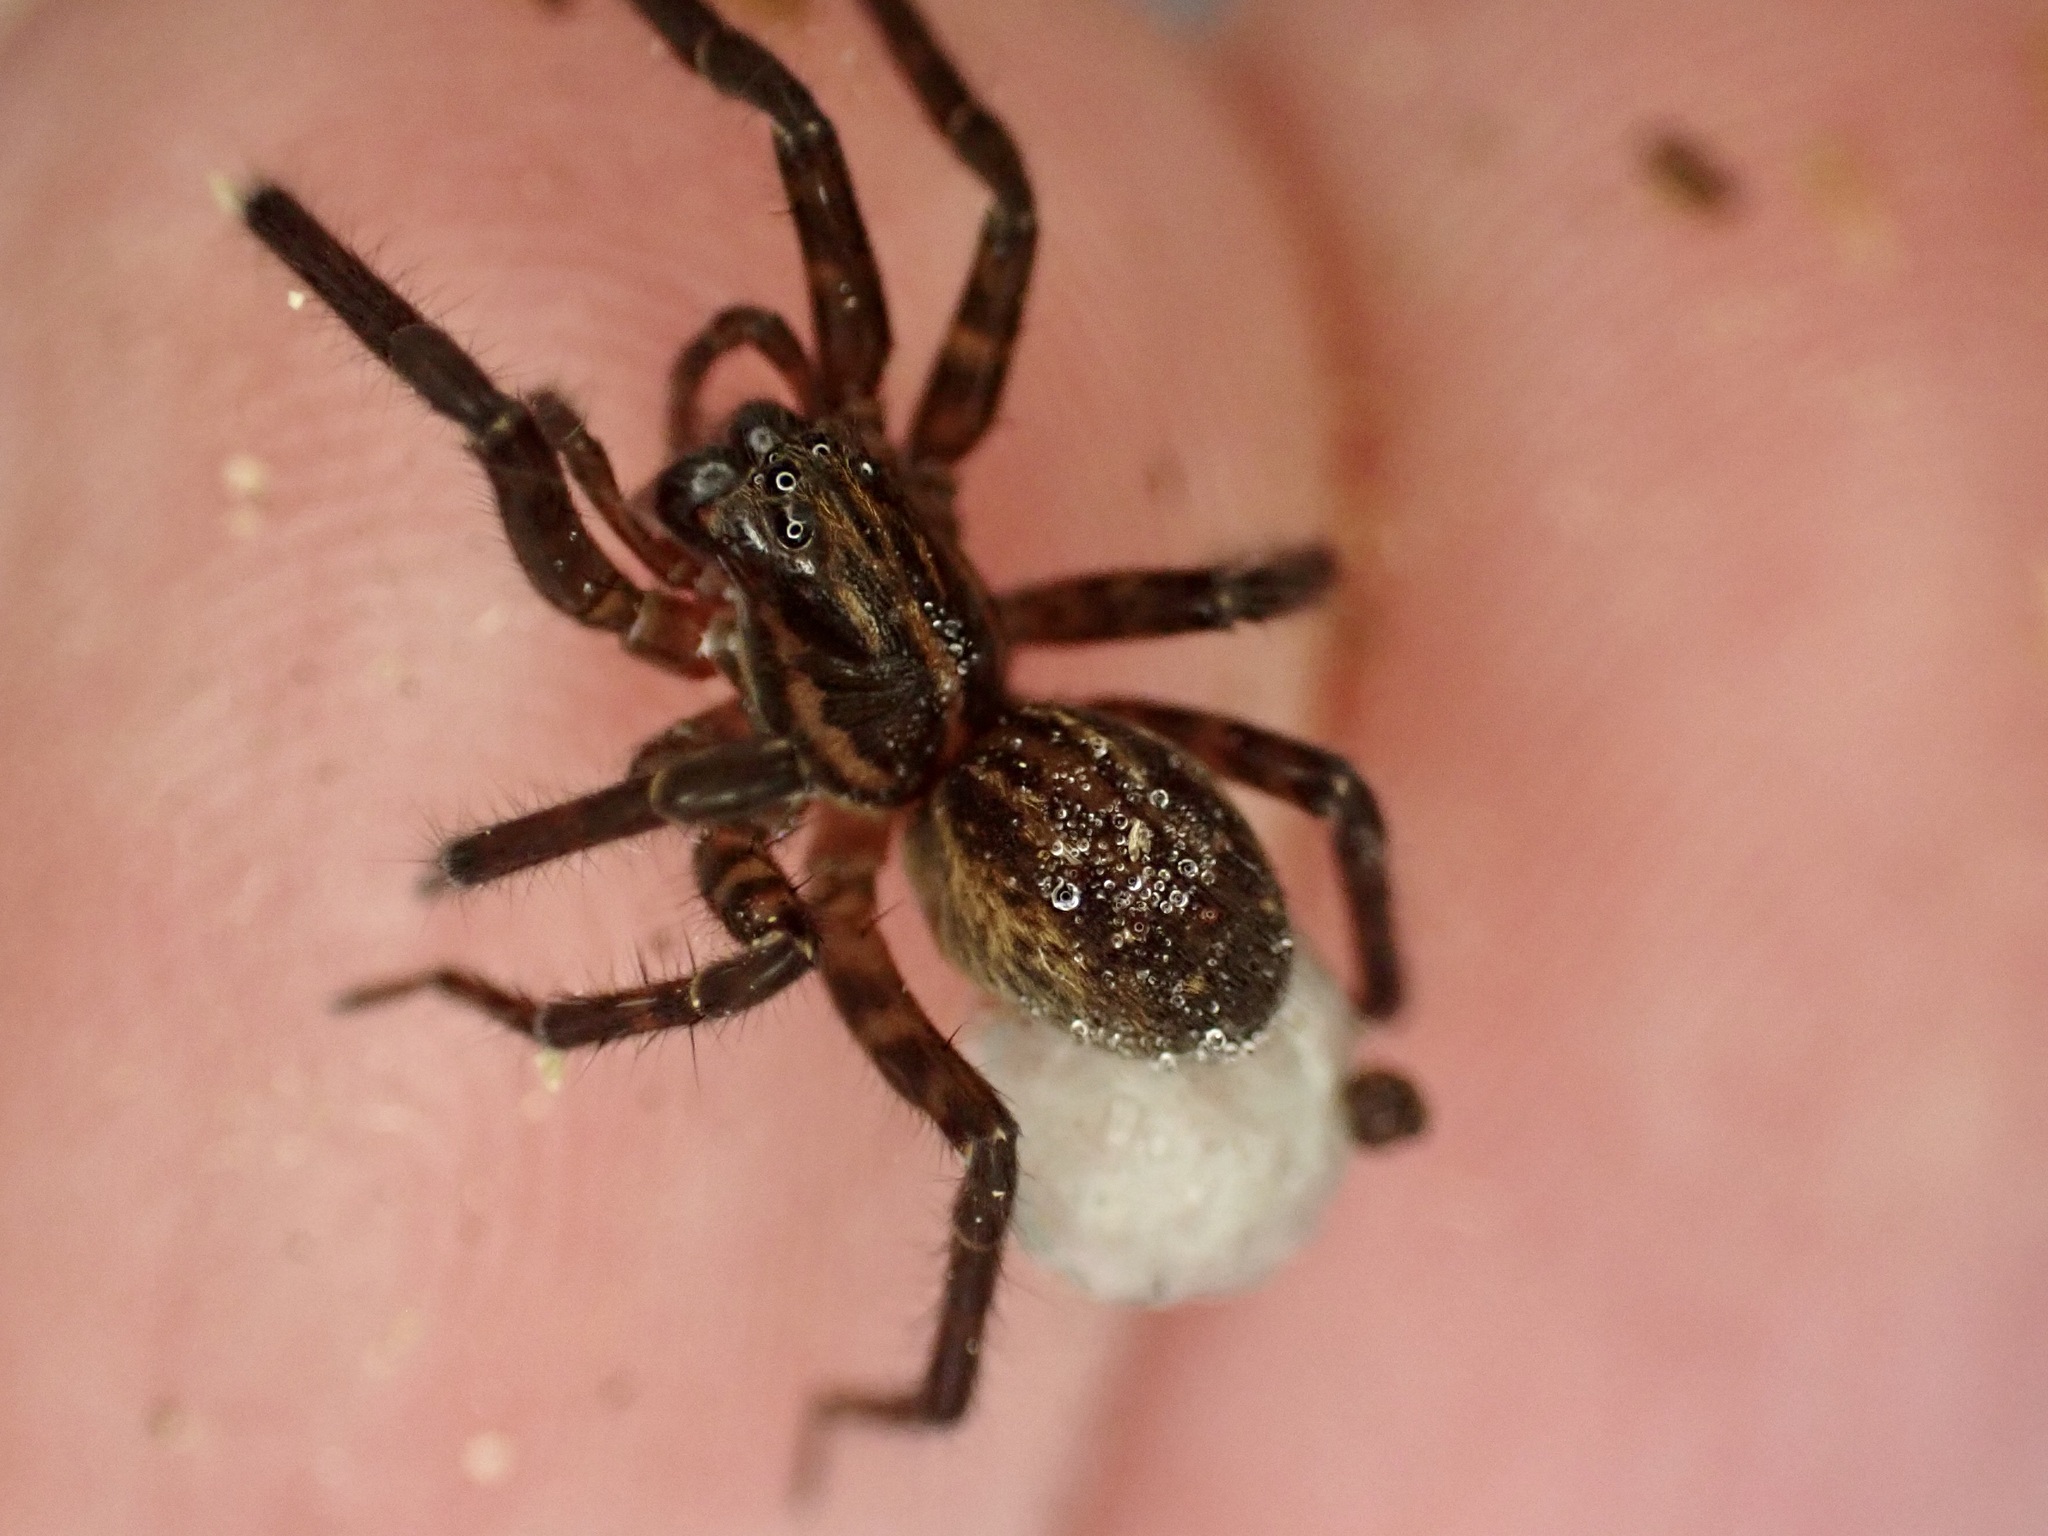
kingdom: Animalia
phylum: Arthropoda
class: Arachnida
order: Araneae
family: Lycosidae
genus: Allotrochosina
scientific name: Allotrochosina schauinslandi
